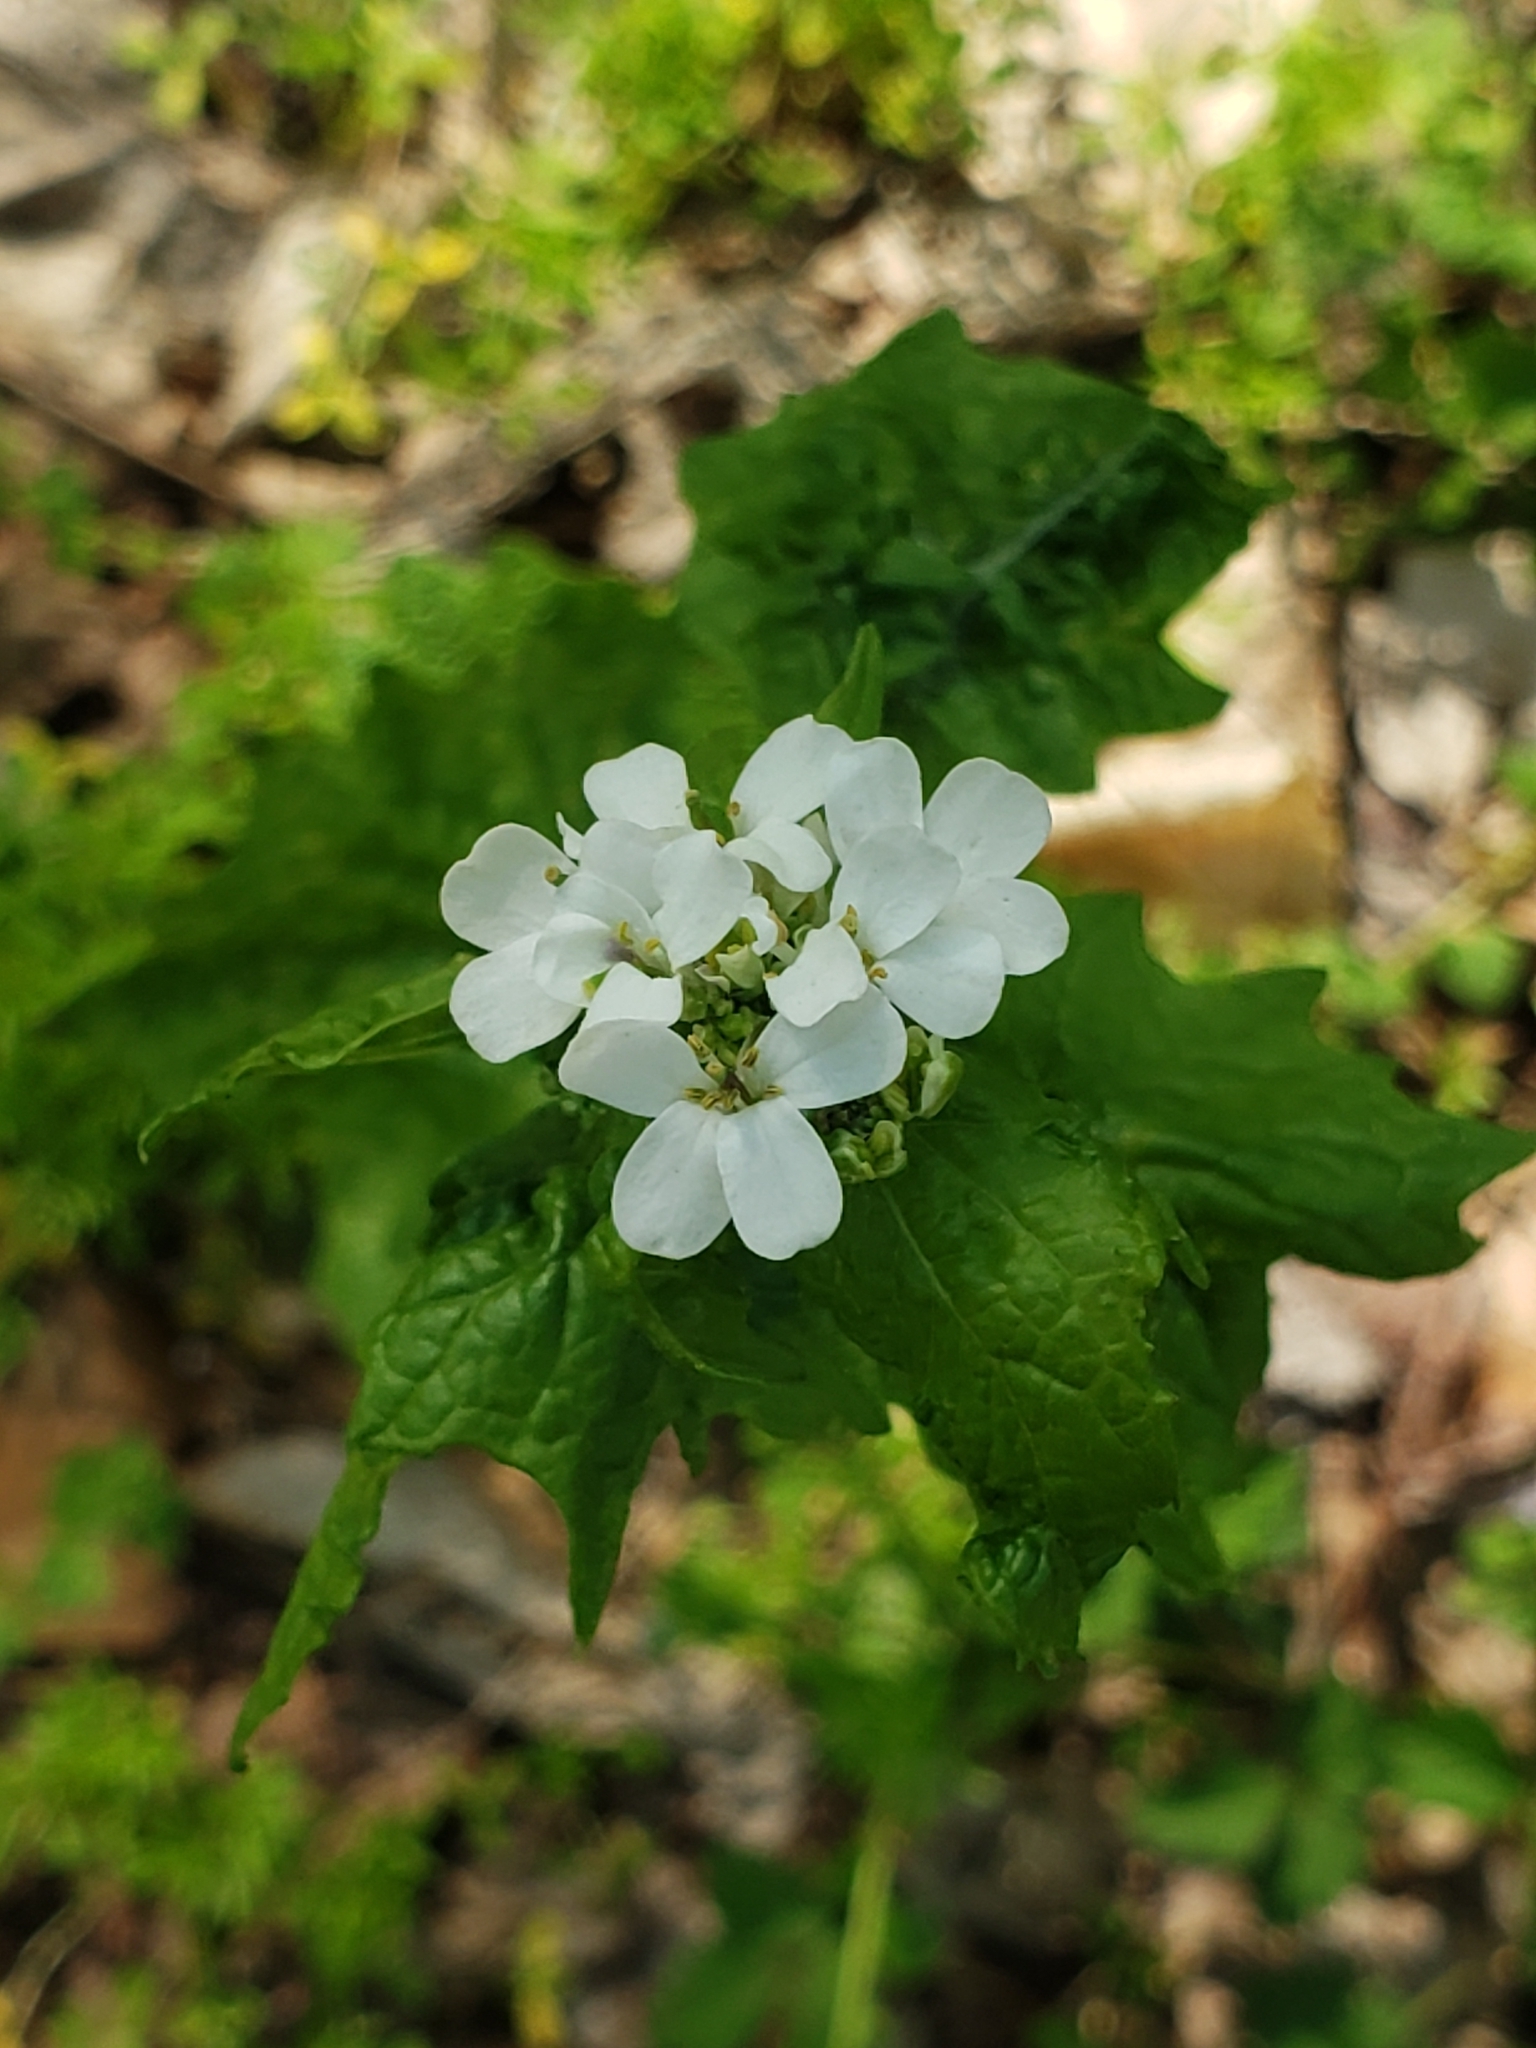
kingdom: Plantae
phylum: Tracheophyta
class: Magnoliopsida
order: Brassicales
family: Brassicaceae
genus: Alliaria
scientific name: Alliaria petiolata
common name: Garlic mustard
